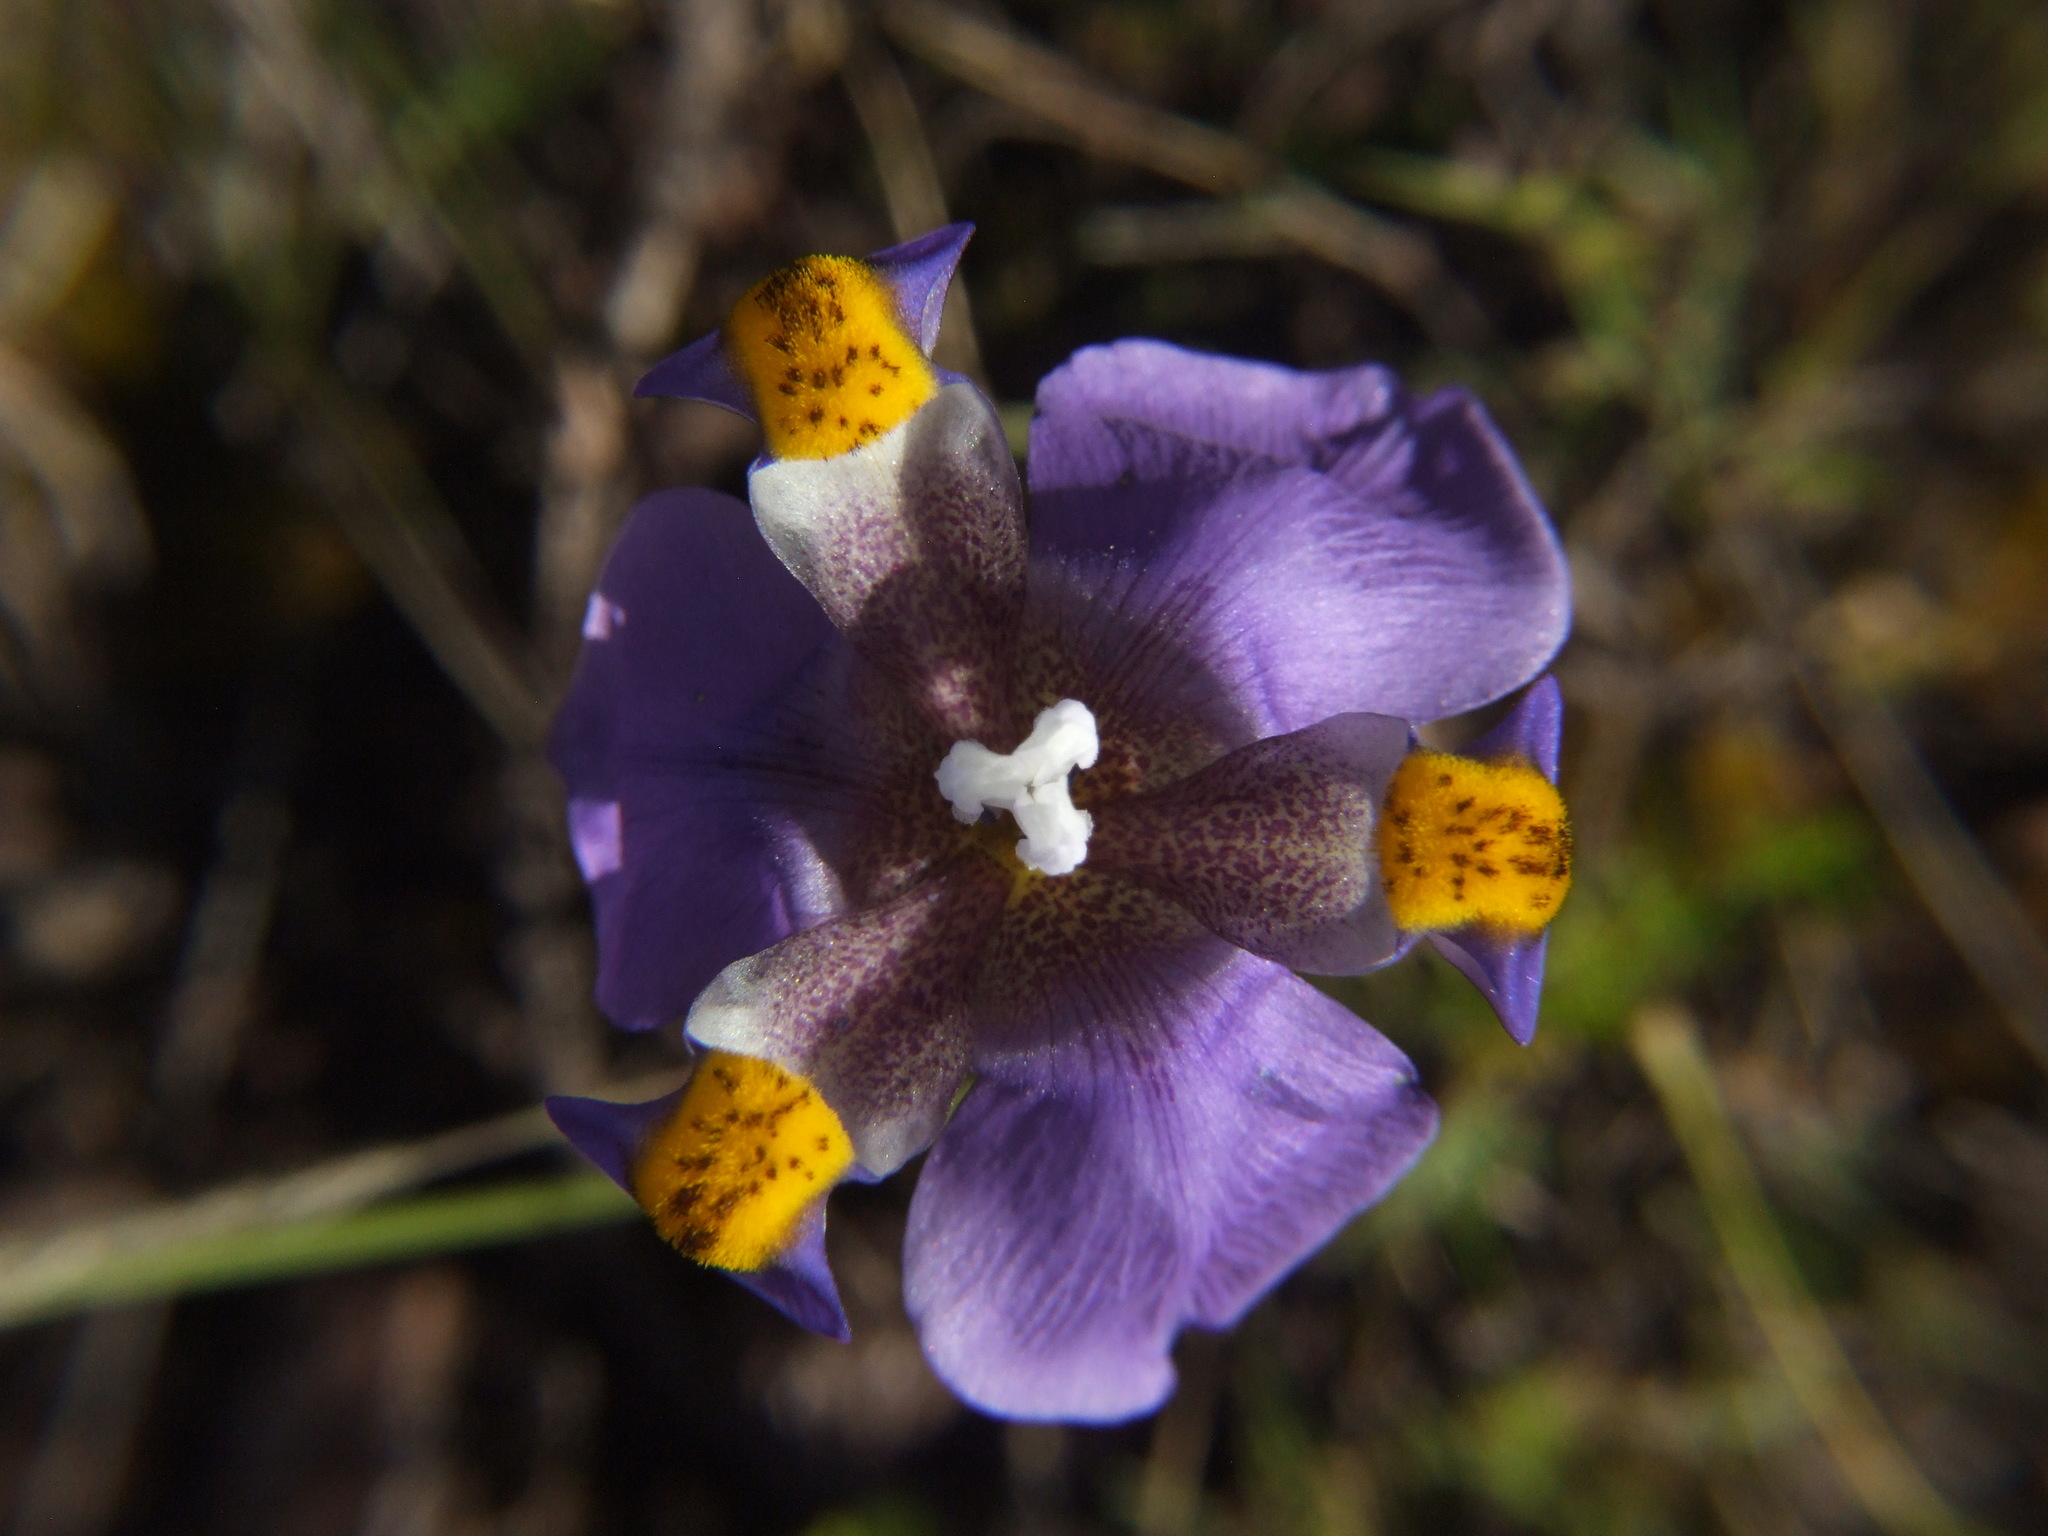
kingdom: Plantae
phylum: Tracheophyta
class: Liliopsida
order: Asparagales
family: Iridaceae
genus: Hesperoxiphion
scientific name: Hesperoxiphion herrerae
